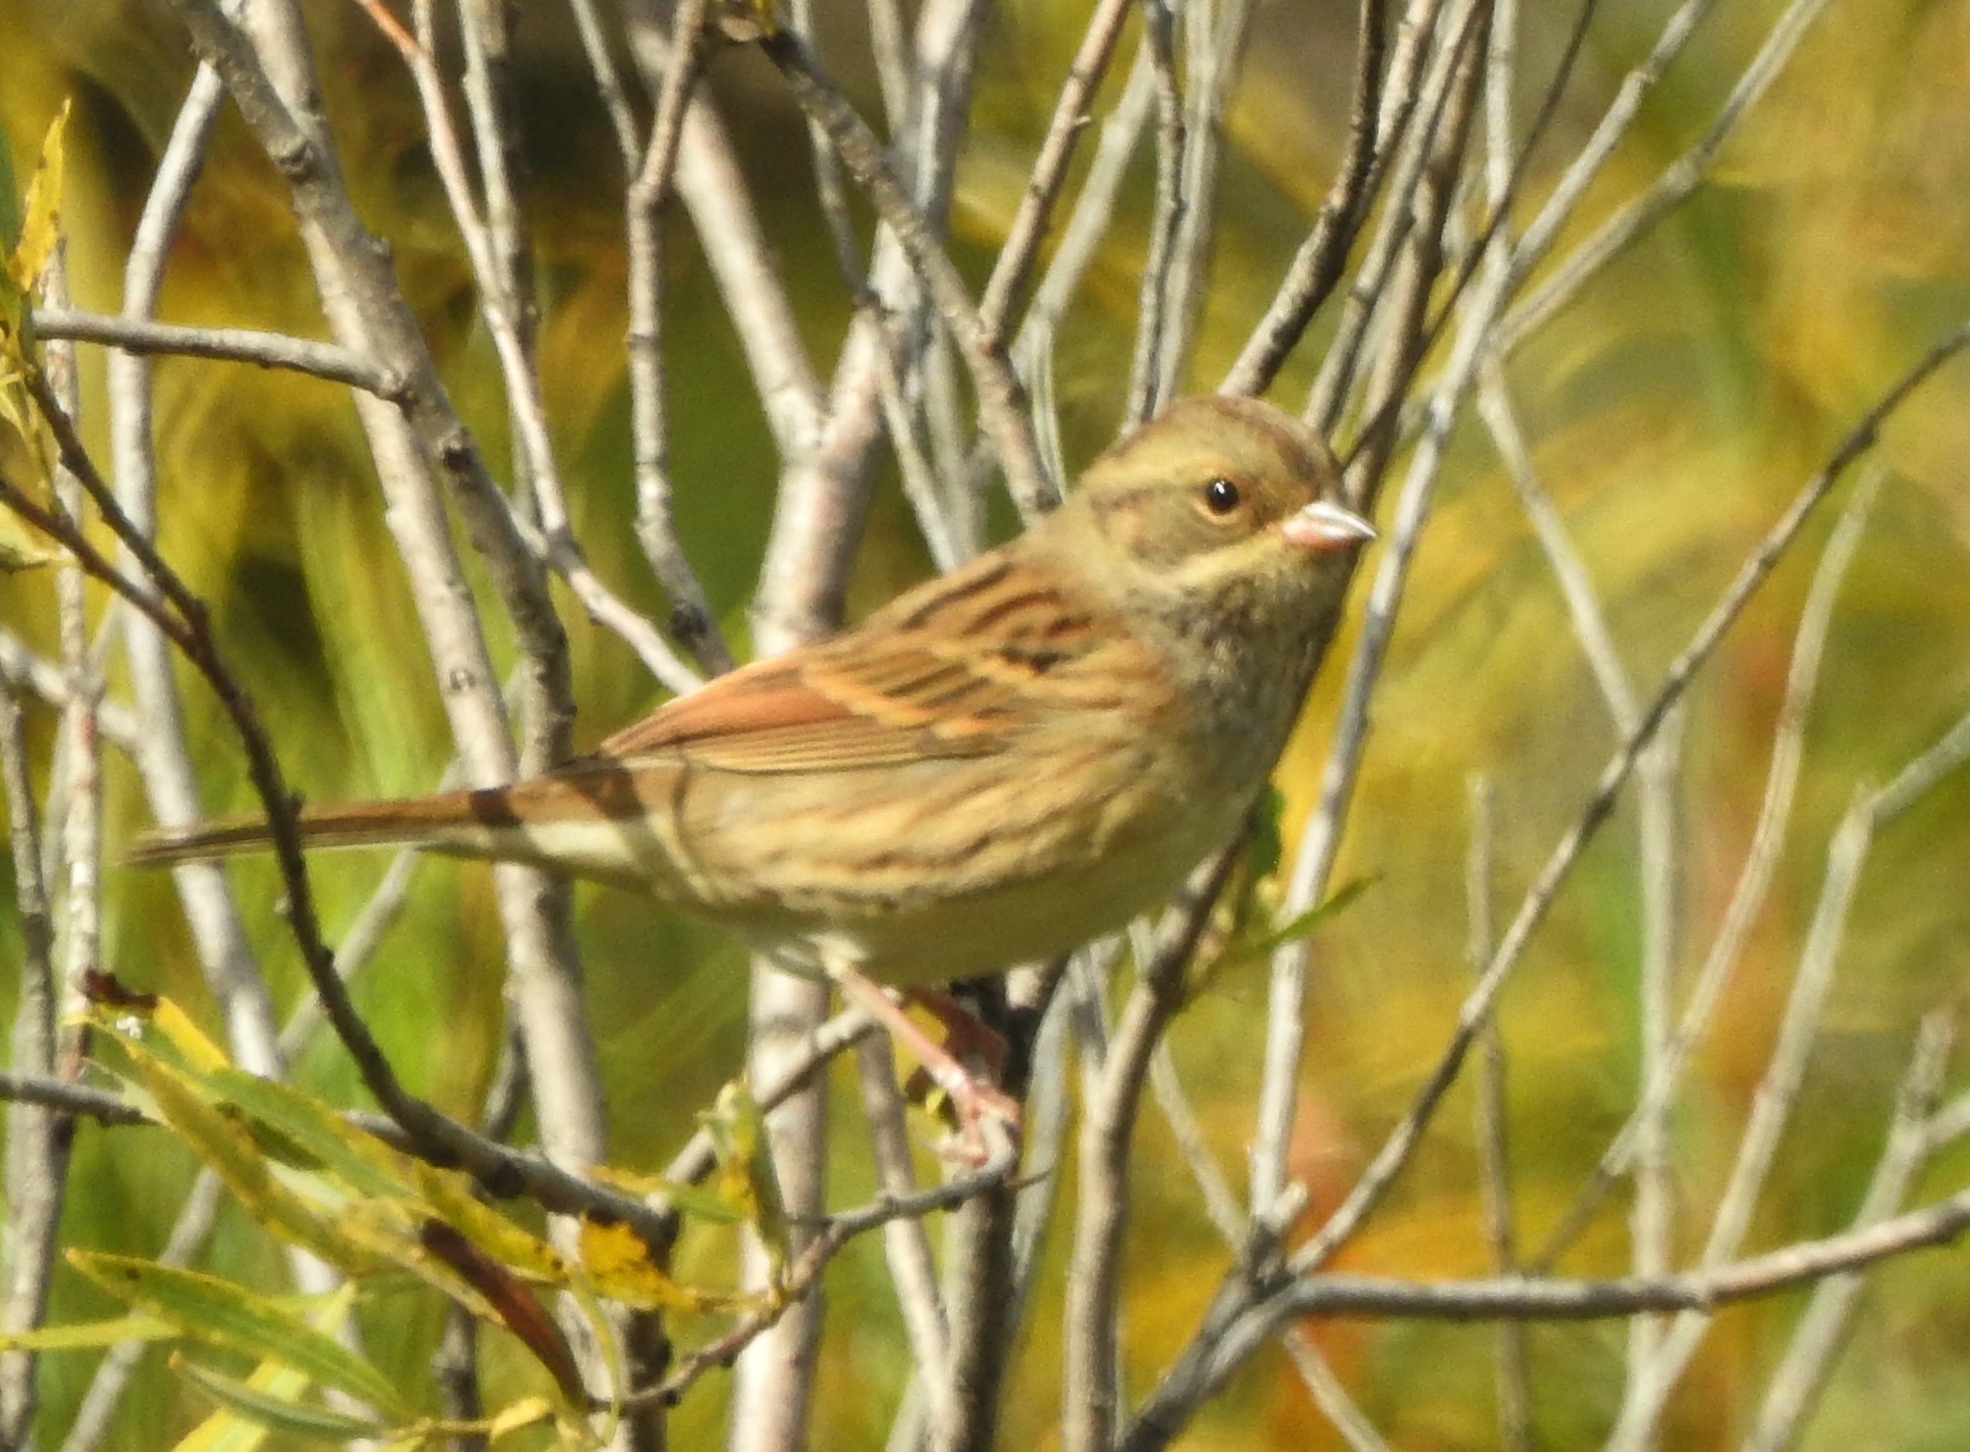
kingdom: Animalia
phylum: Chordata
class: Aves
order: Passeriformes
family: Emberizidae
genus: Emberiza
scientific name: Emberiza spodocephala
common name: Black-faced bunting
